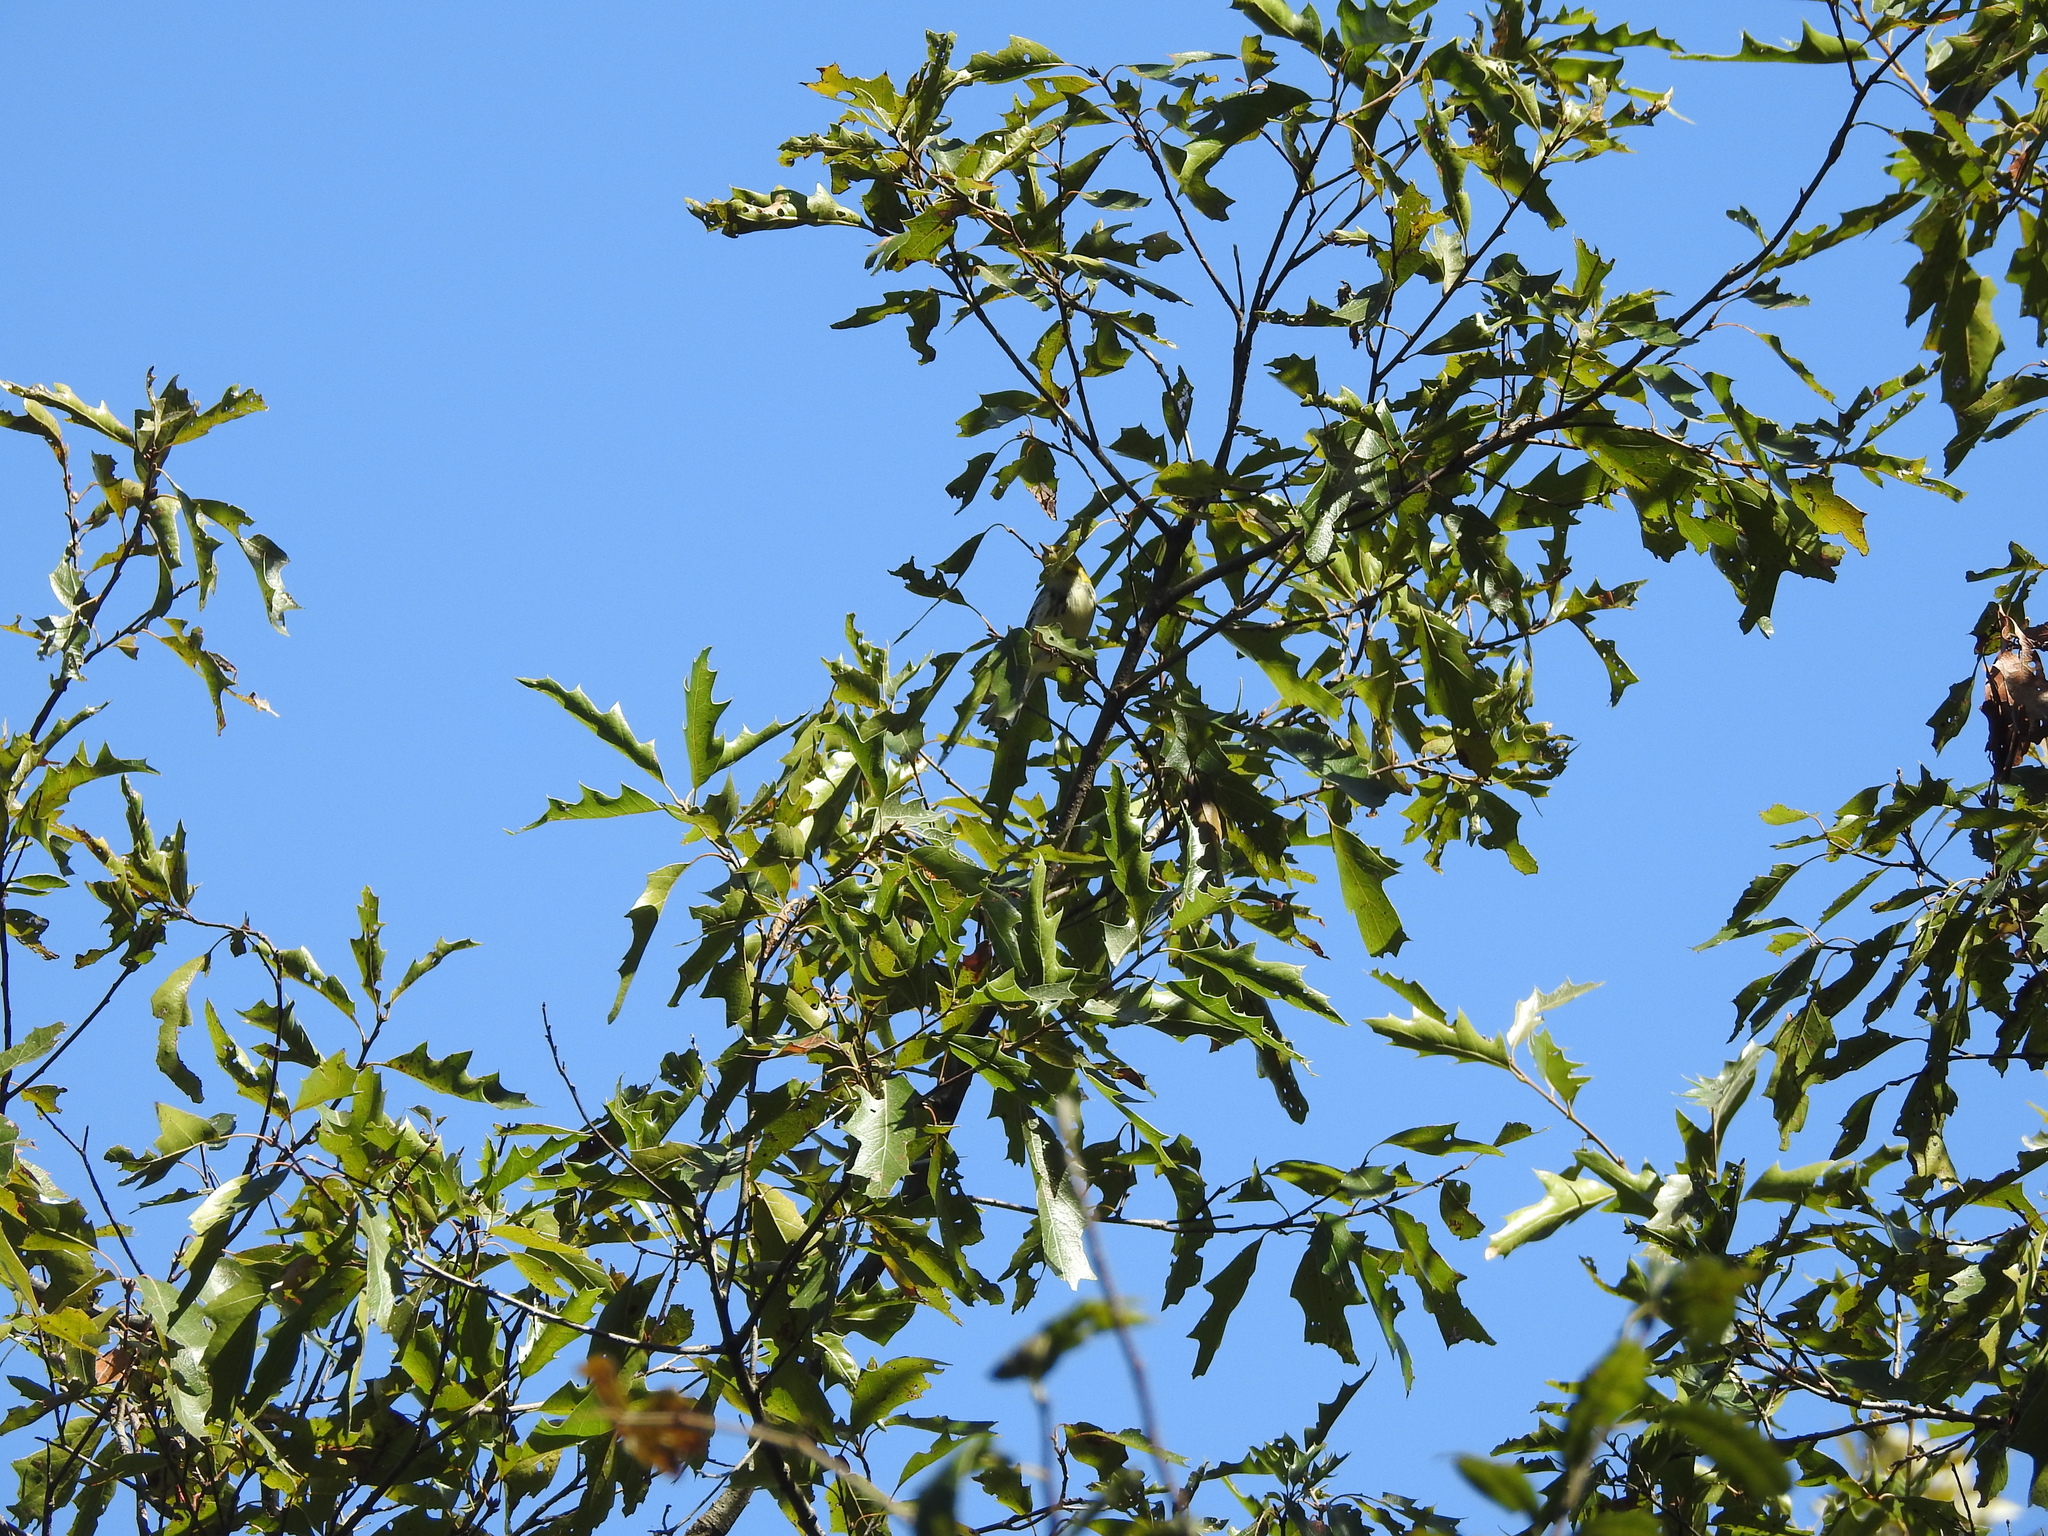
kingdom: Animalia
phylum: Chordata
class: Aves
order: Passeriformes
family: Parulidae
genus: Setophaga
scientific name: Setophaga virens
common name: Black-throated green warbler
